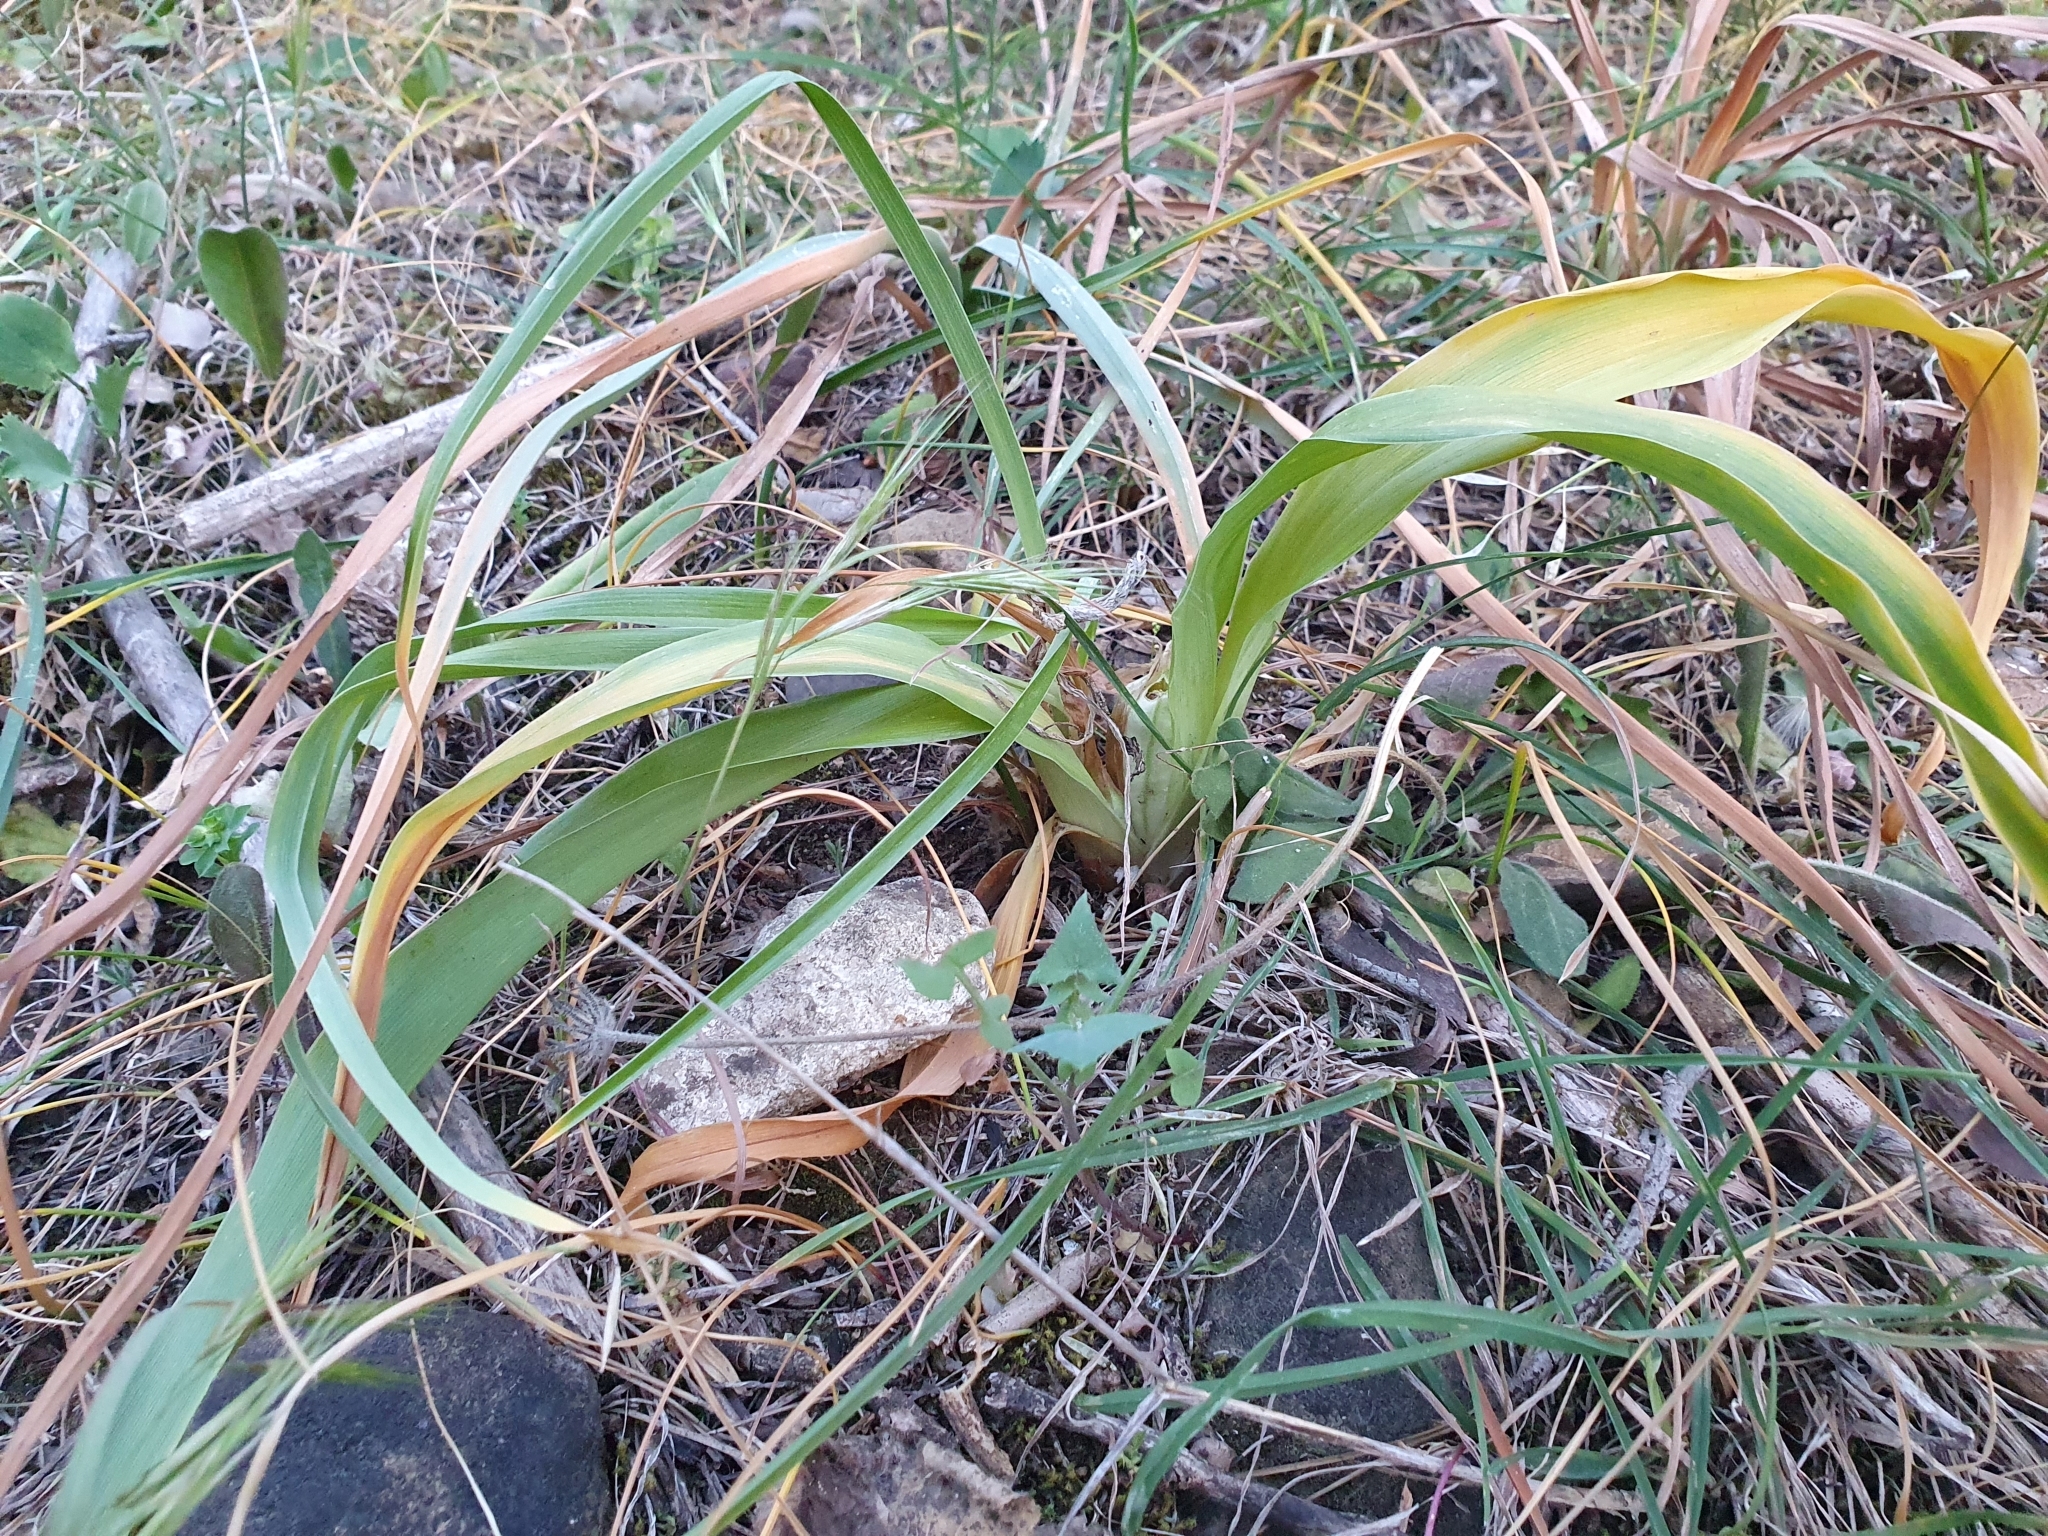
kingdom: Plantae
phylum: Tracheophyta
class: Liliopsida
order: Asparagales
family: Iridaceae
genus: Iris
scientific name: Iris planifolia
